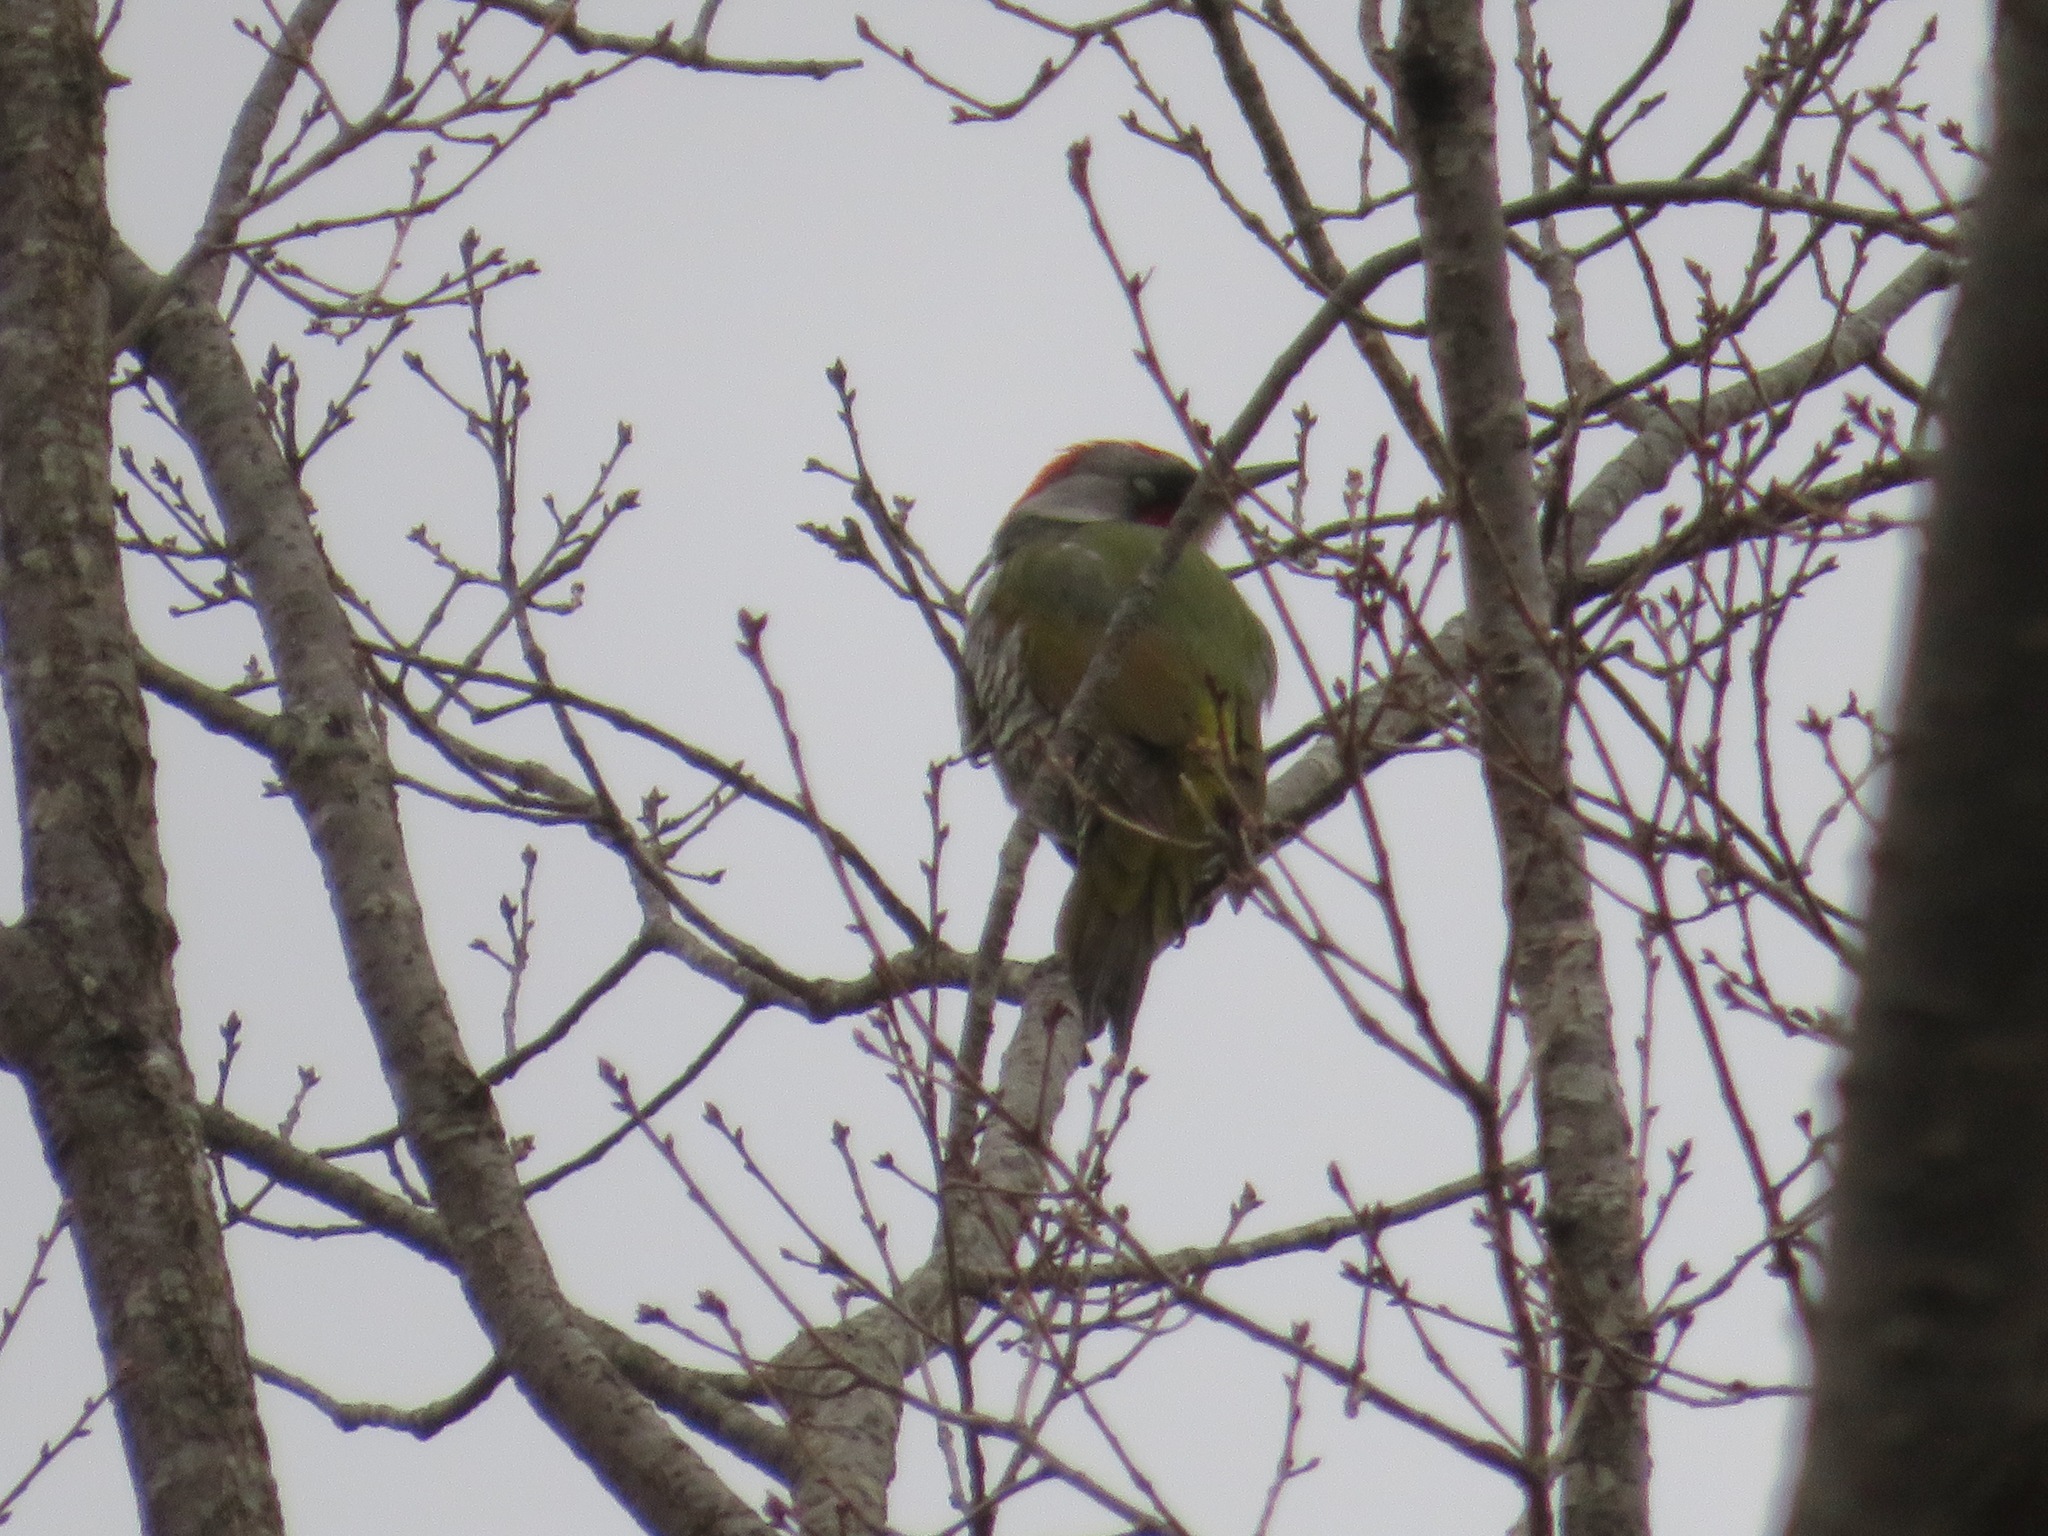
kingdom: Animalia
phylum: Chordata
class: Aves
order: Piciformes
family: Picidae
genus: Picus
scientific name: Picus awokera
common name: Japanese green woodpecker
